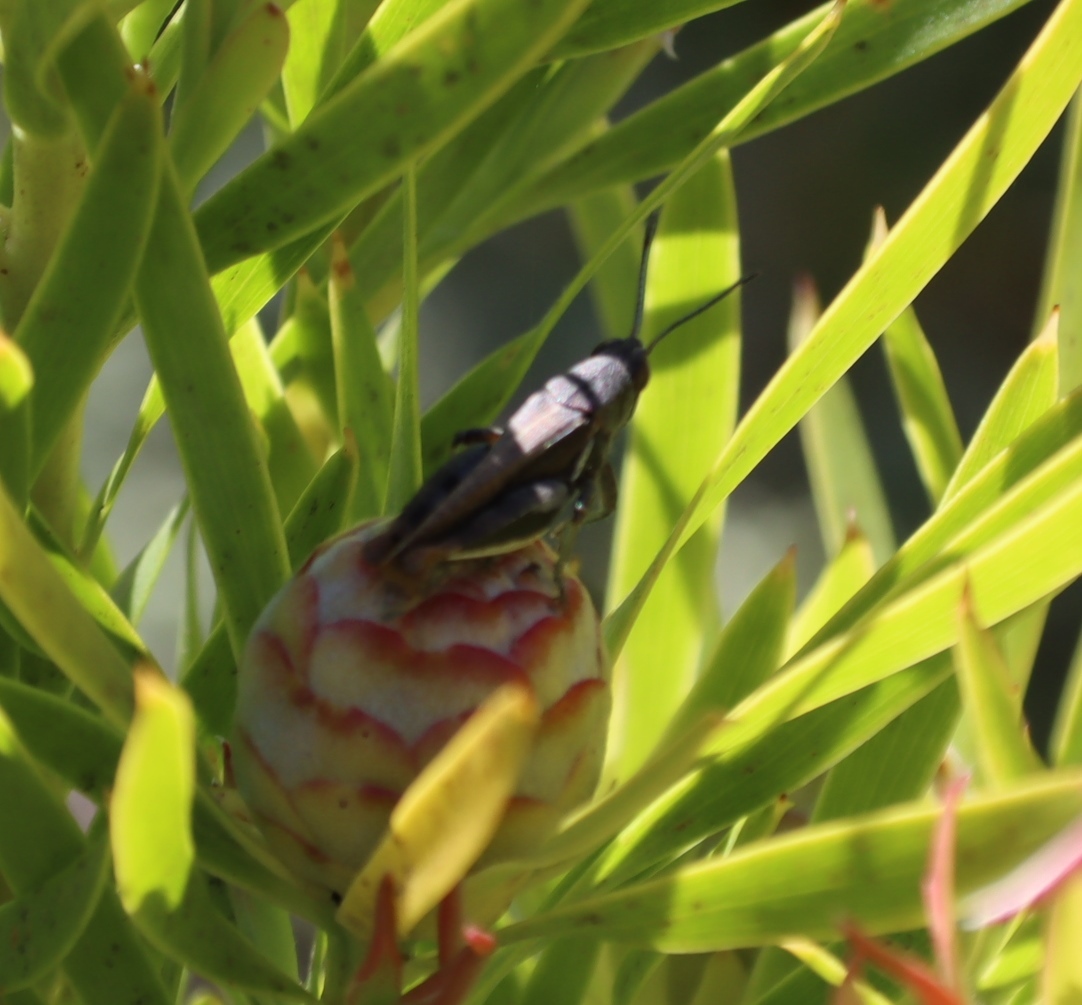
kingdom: Plantae
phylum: Tracheophyta
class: Magnoliopsida
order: Proteales
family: Proteaceae
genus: Leucadendron
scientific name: Leucadendron xanthoconus
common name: Sickle-leaf conebush
